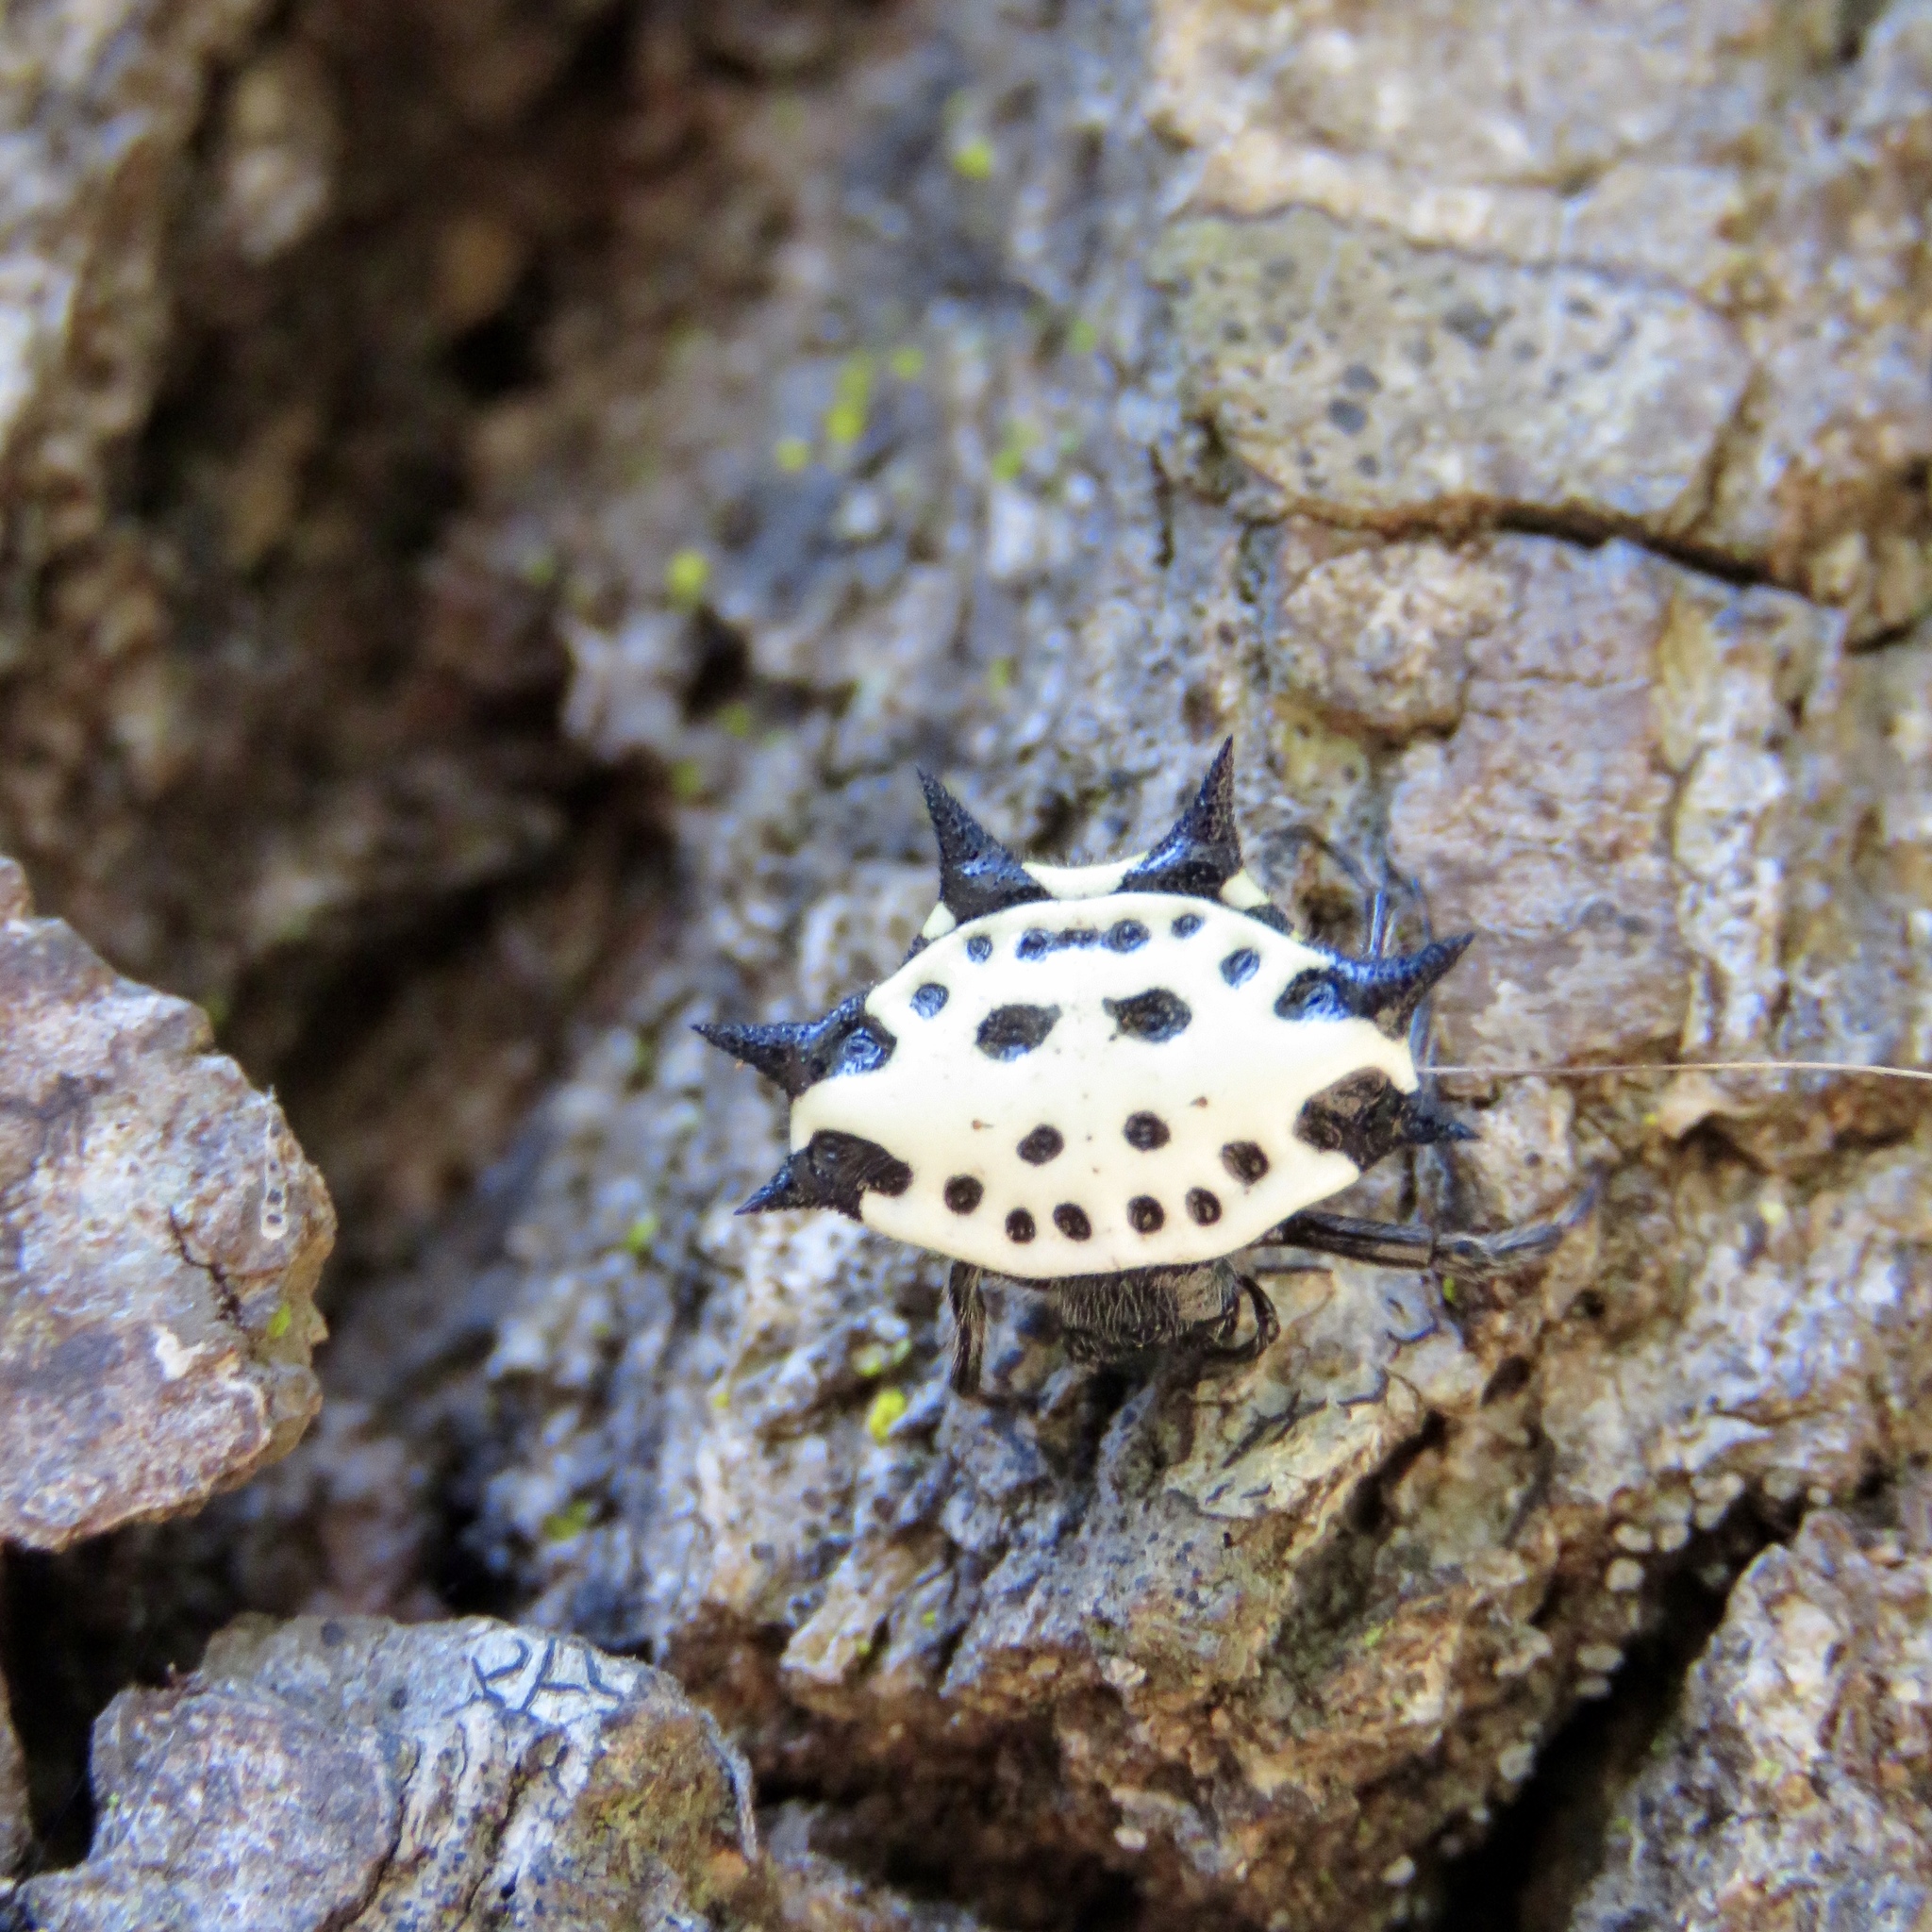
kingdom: Animalia
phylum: Arthropoda
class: Arachnida
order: Araneae
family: Araneidae
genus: Gasteracantha
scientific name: Gasteracantha cancriformis
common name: Orb weavers
